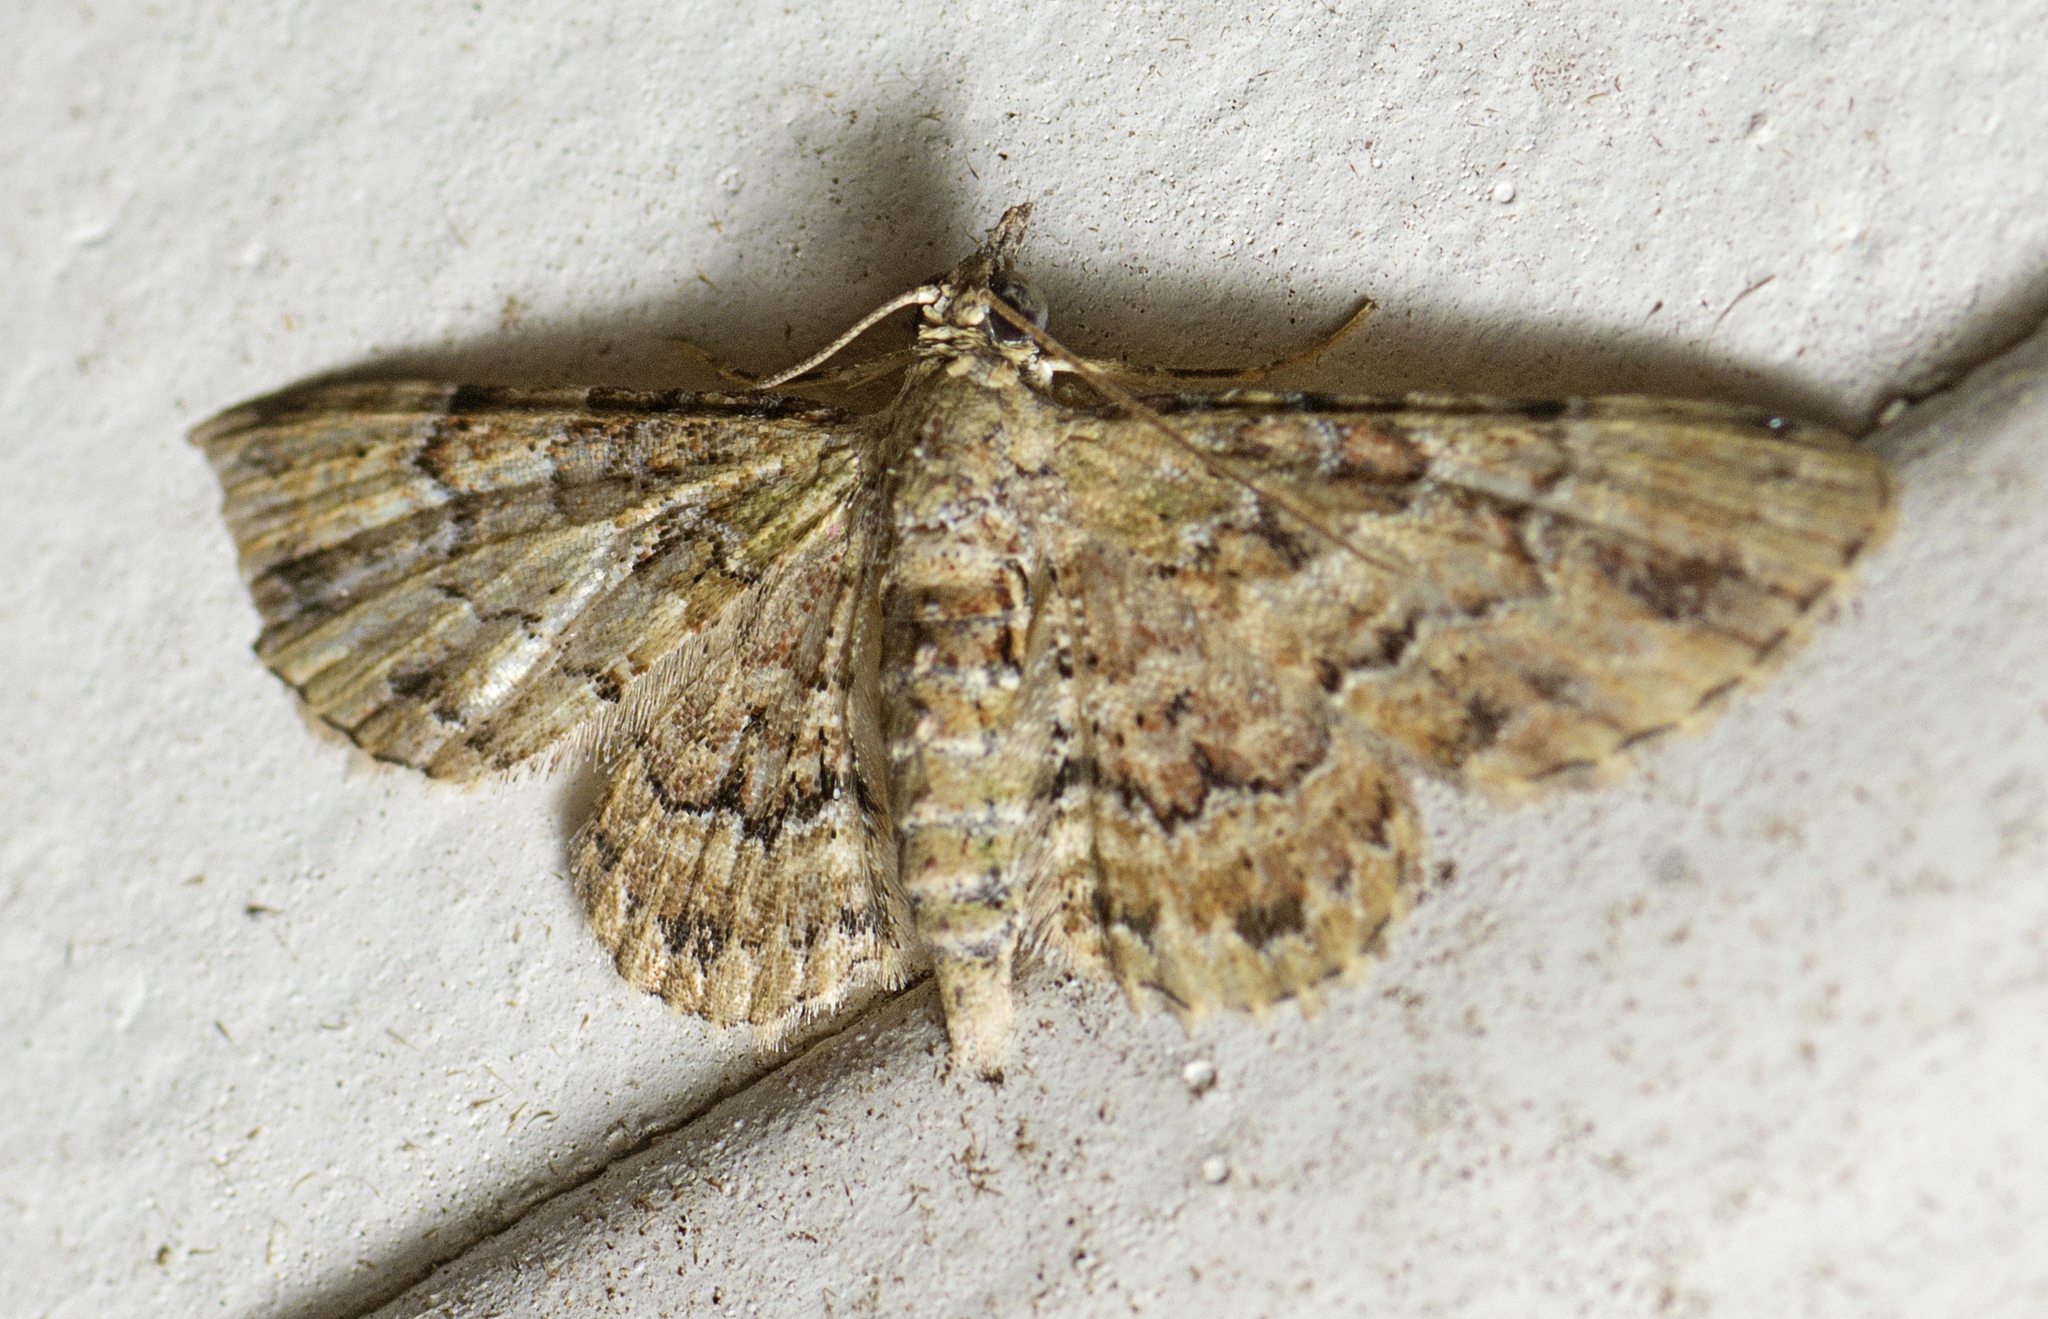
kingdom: Animalia
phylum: Arthropoda
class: Insecta
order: Lepidoptera
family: Geometridae
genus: Gymnoscelis
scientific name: Gymnoscelis lophopus
